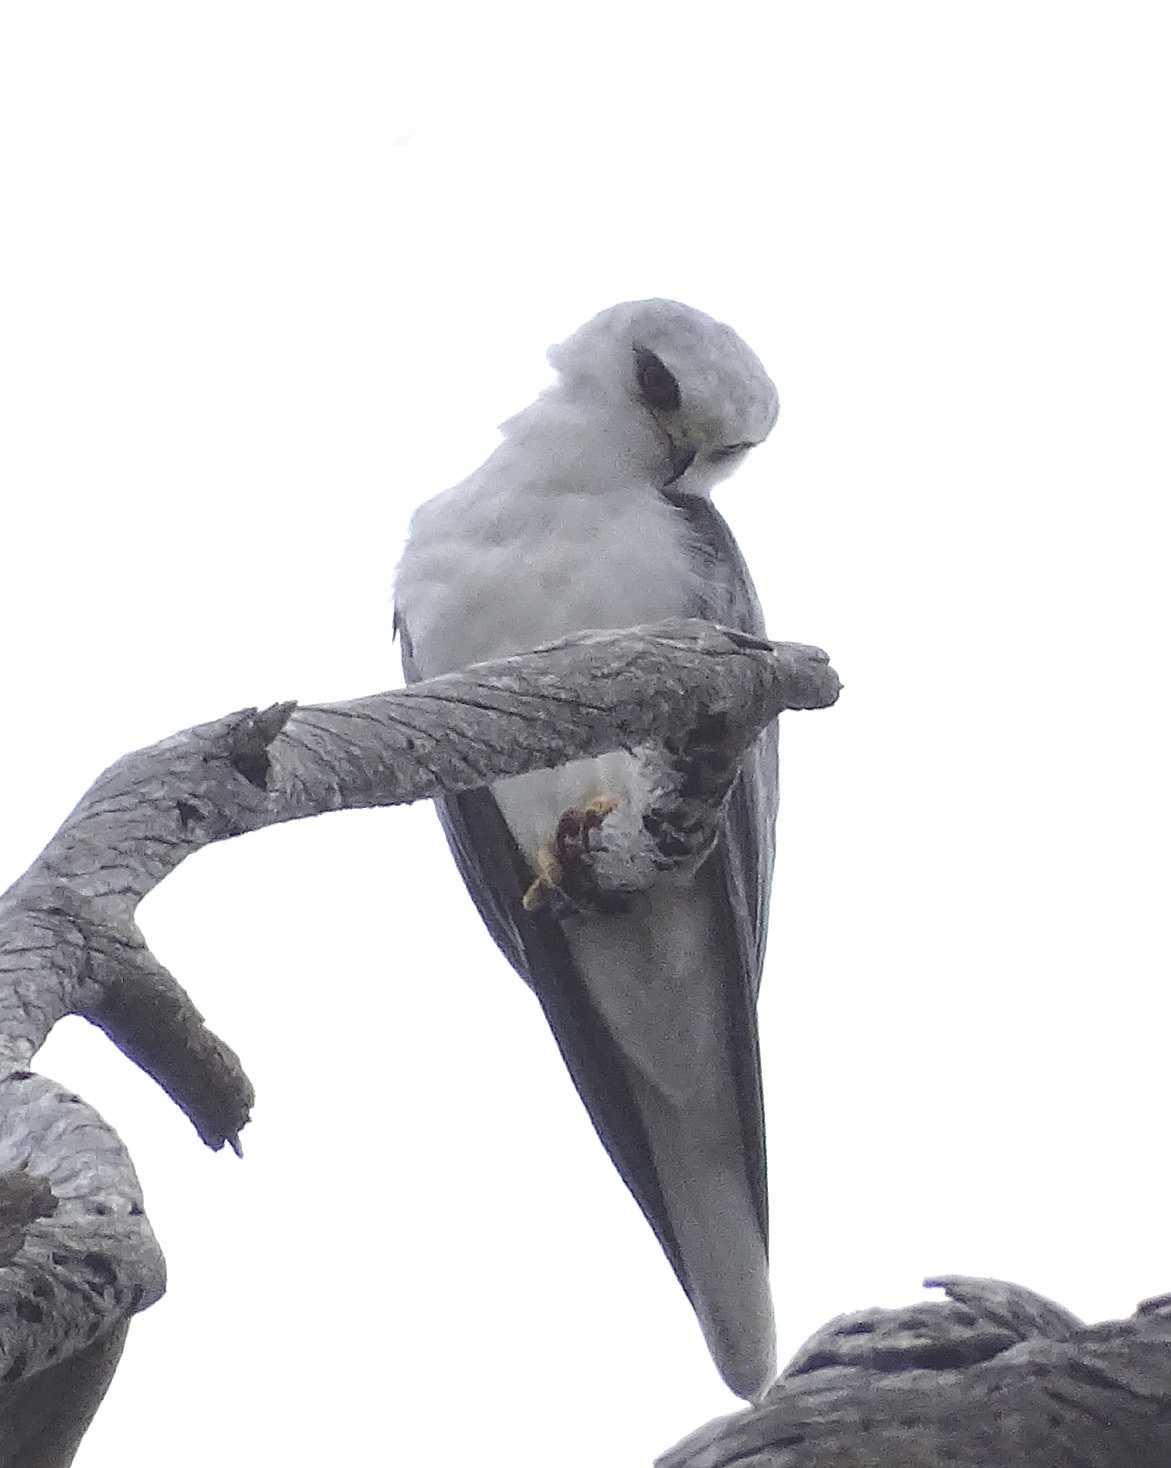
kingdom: Animalia
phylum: Chordata
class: Aves
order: Accipitriformes
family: Accipitridae
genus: Elanus
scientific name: Elanus leucurus
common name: White-tailed kite
